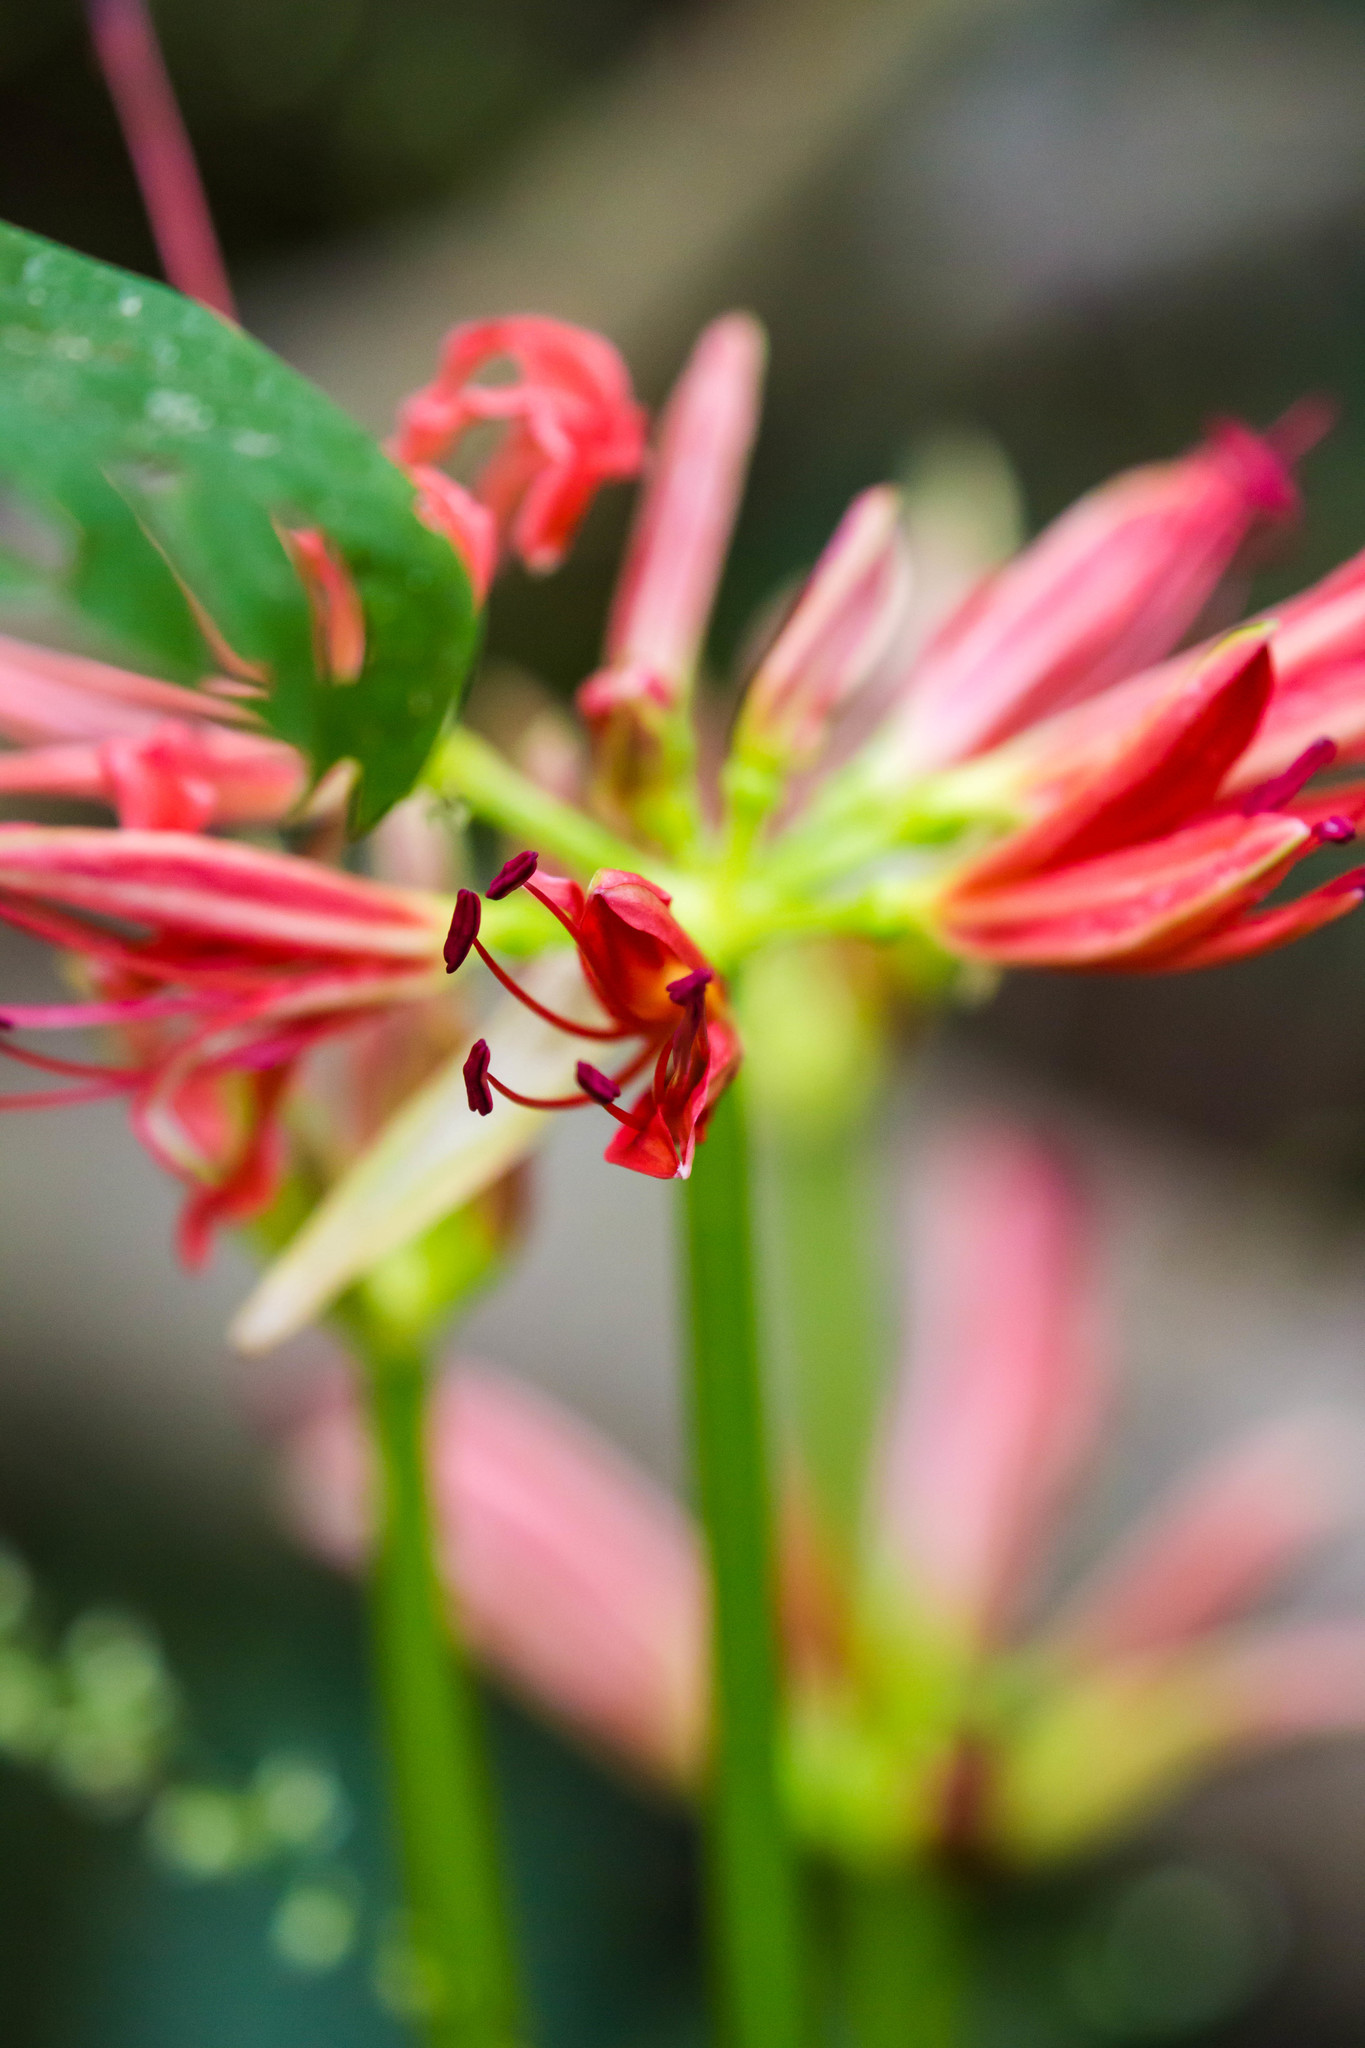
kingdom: Plantae
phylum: Tracheophyta
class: Liliopsida
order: Asparagales
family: Amaryllidaceae
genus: Lycoris
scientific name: Lycoris radiata
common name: Red spider lily
